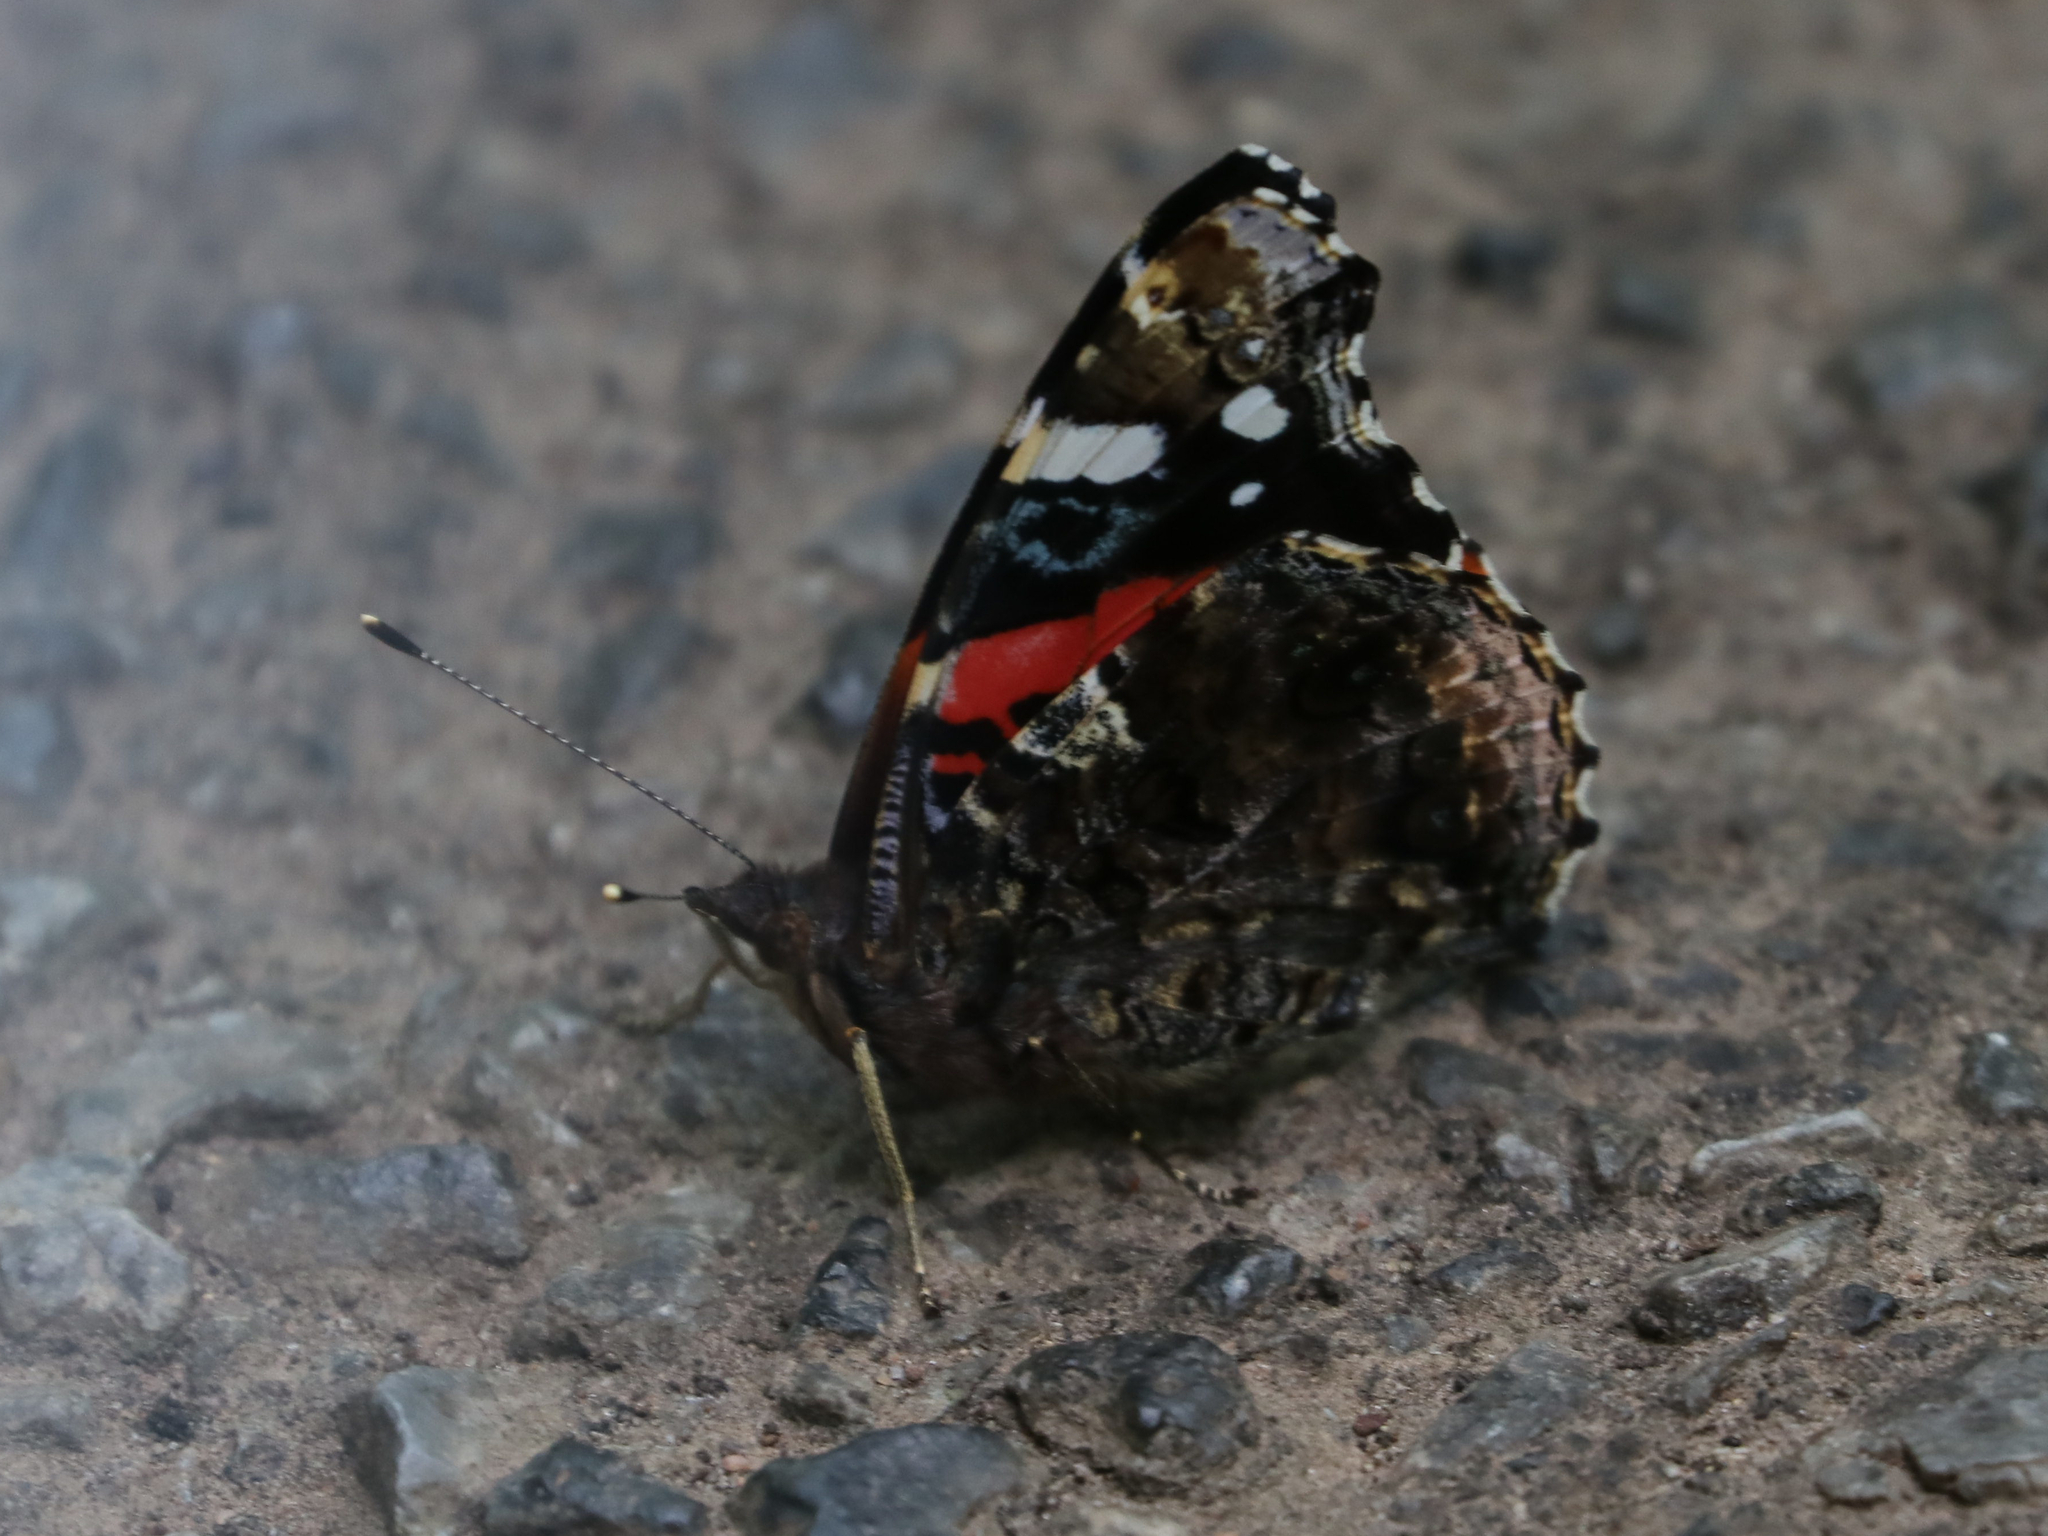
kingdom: Animalia
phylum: Arthropoda
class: Insecta
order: Lepidoptera
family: Nymphalidae
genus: Vanessa
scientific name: Vanessa atalanta
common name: Red admiral
